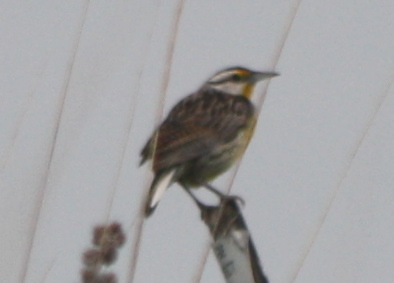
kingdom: Animalia
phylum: Chordata
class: Aves
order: Passeriformes
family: Icteridae
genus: Sturnella
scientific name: Sturnella magna
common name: Eastern meadowlark
